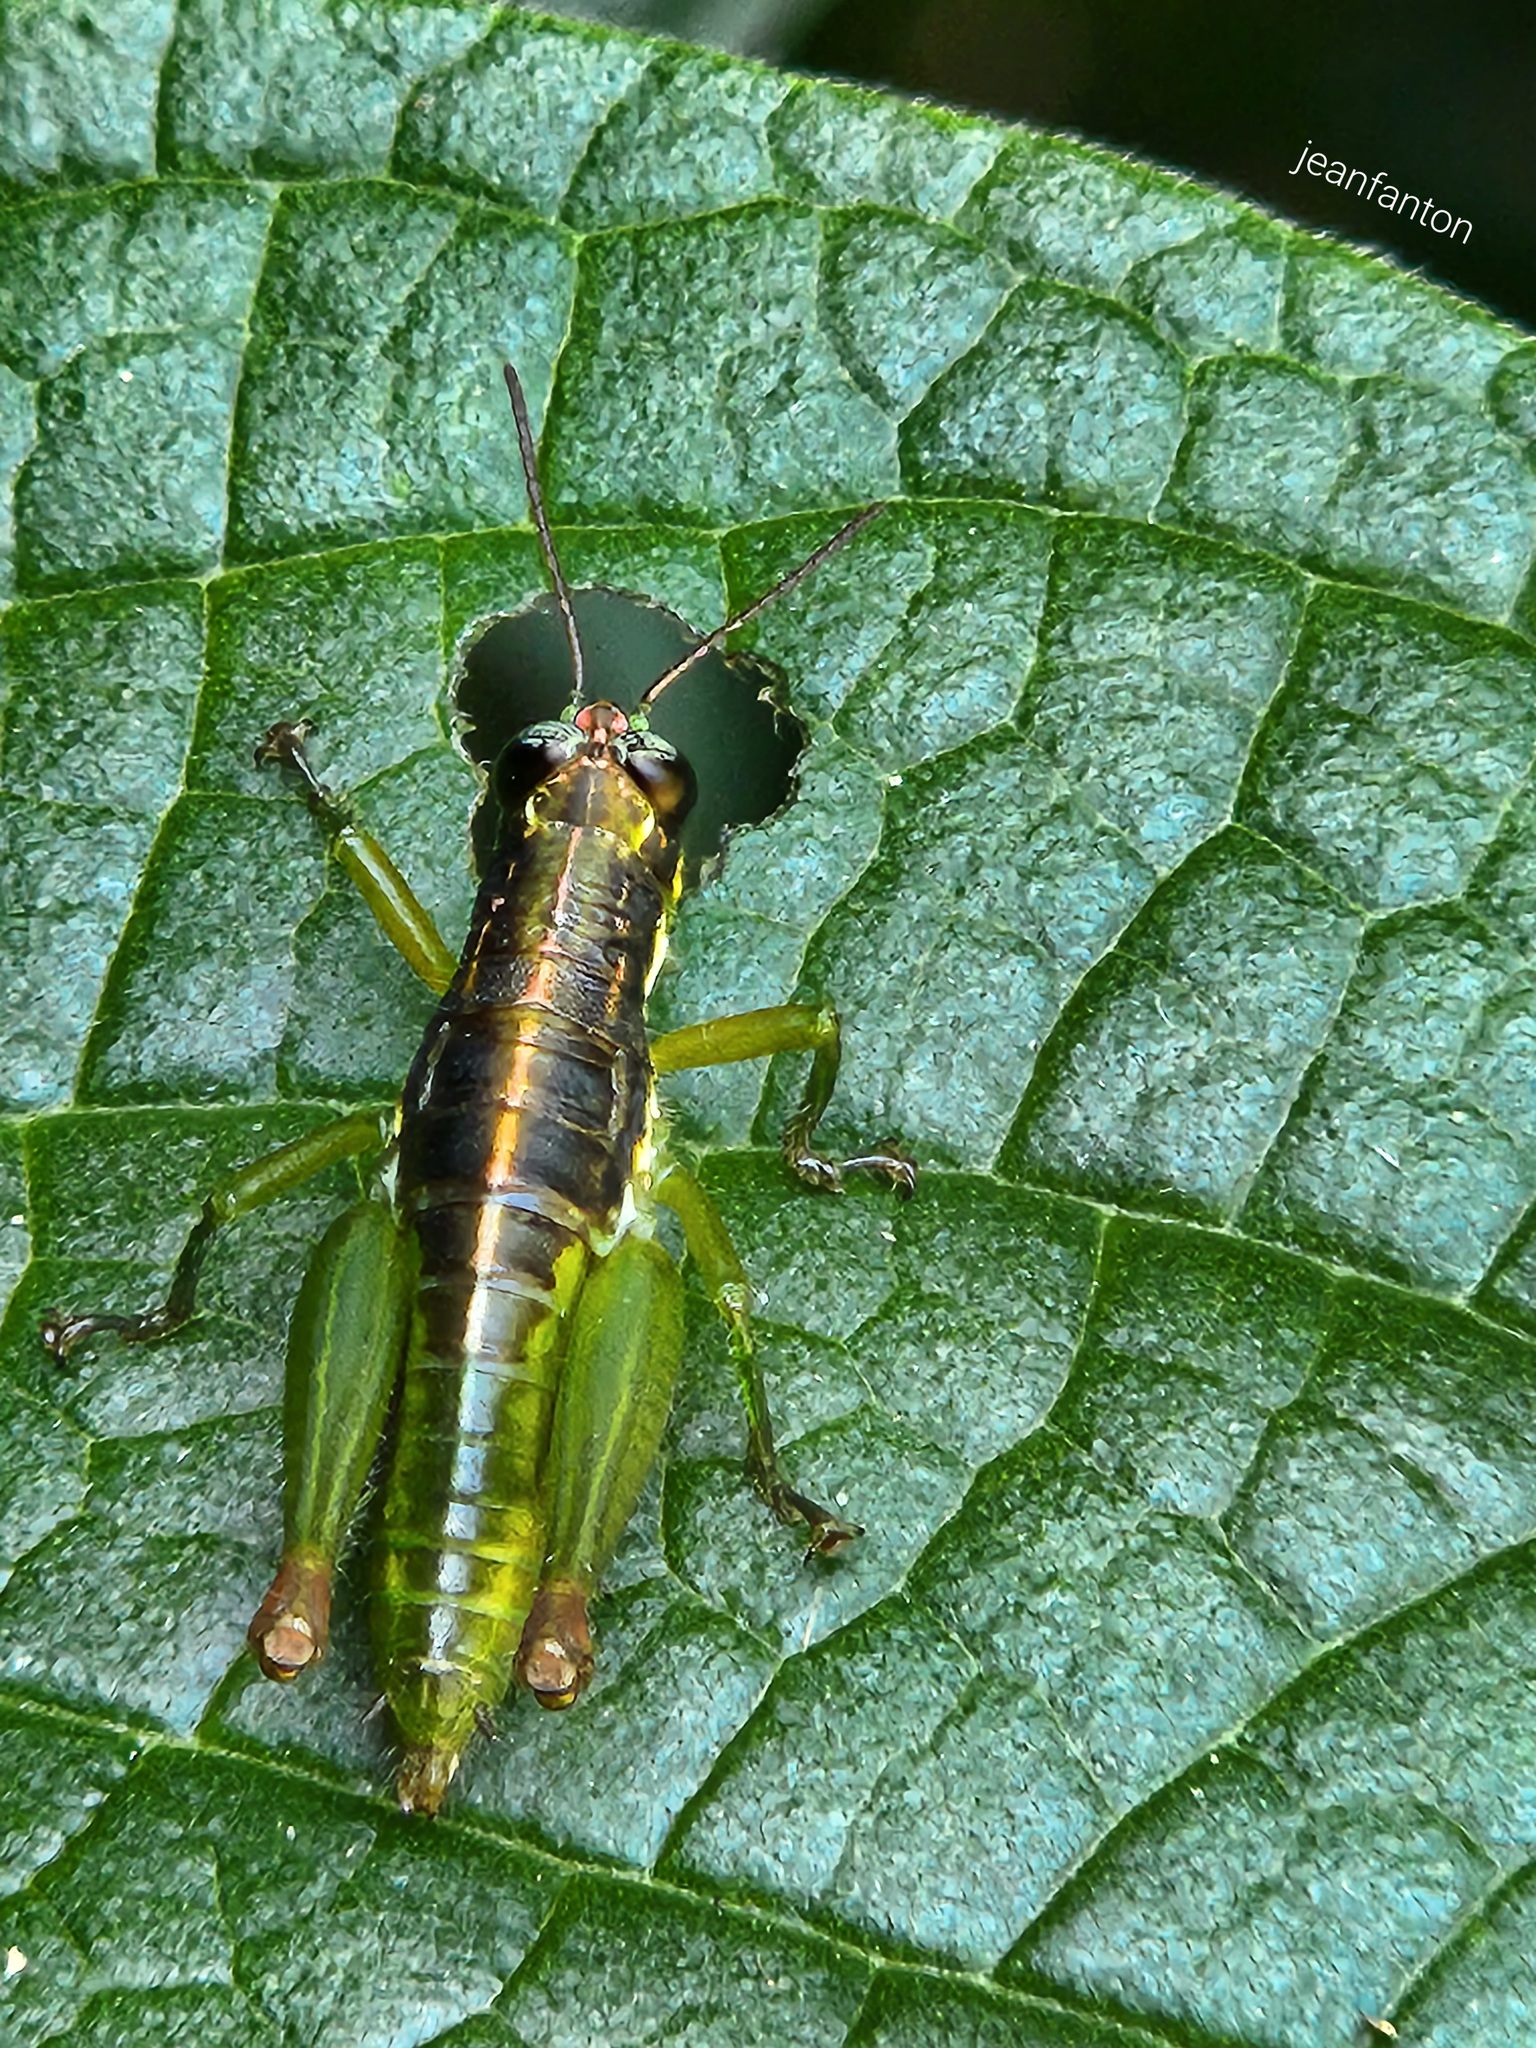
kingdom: Animalia
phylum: Arthropoda
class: Insecta
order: Orthoptera
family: Acrididae
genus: Liebermannacris
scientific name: Liebermannacris dorsualis
